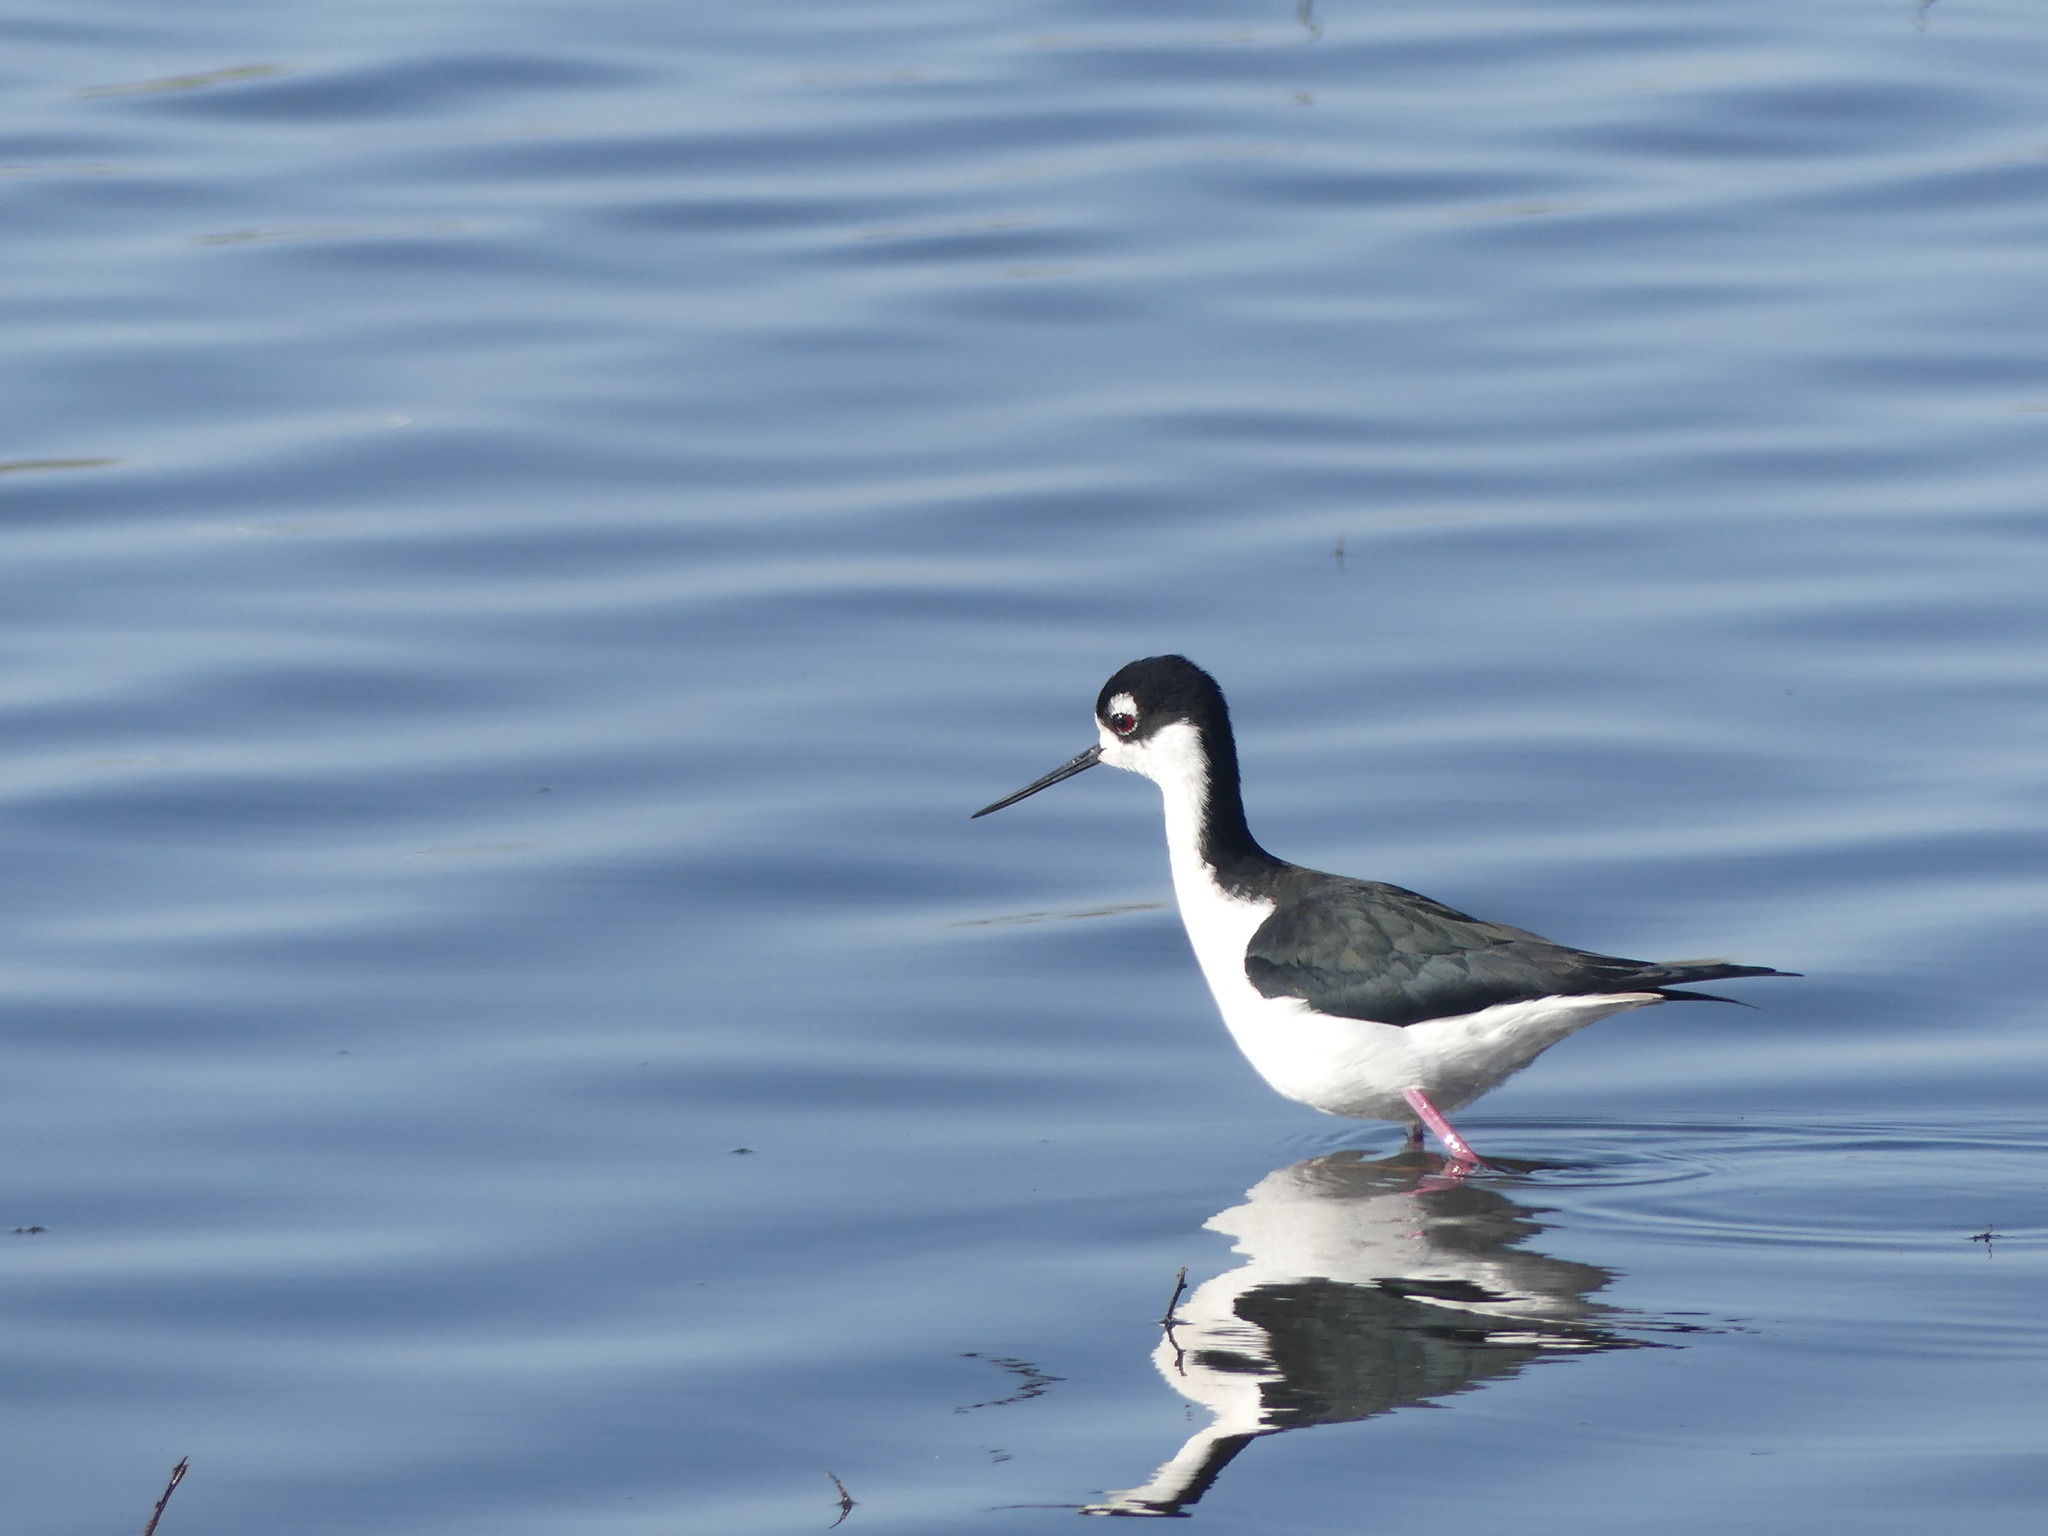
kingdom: Animalia
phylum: Chordata
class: Aves
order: Charadriiformes
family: Recurvirostridae
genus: Himantopus
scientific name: Himantopus mexicanus
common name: Black-necked stilt
